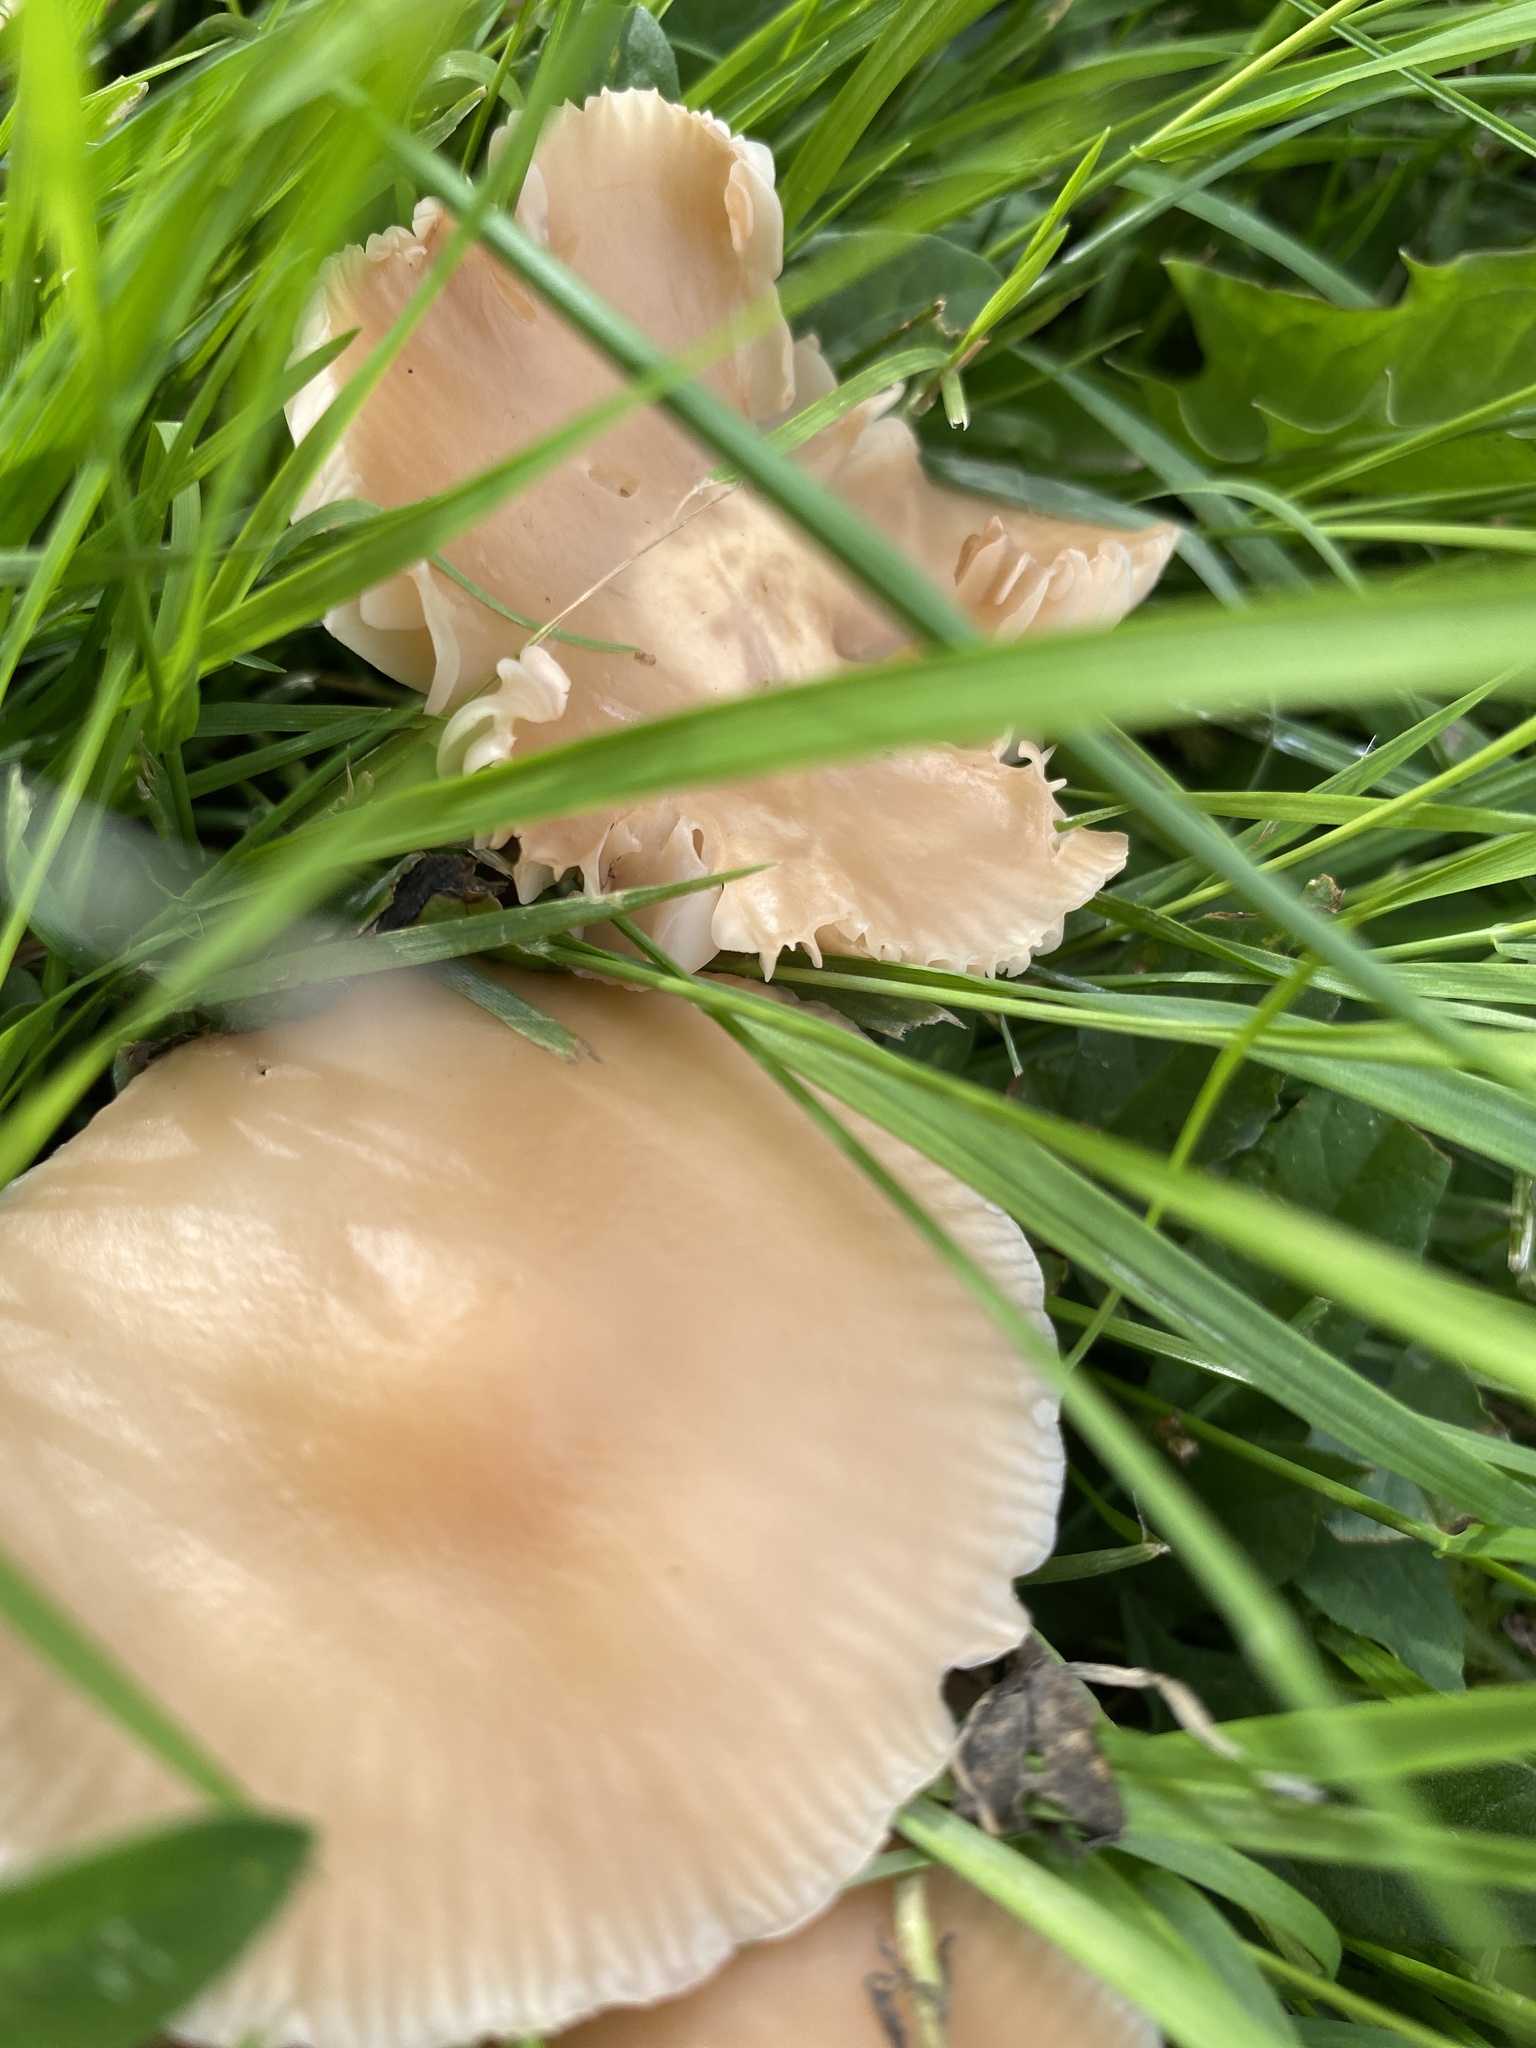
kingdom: Fungi
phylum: Basidiomycota
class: Agaricomycetes
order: Agaricales
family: Marasmiaceae
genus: Marasmius
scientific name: Marasmius oreades
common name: Fairy ring champignon
